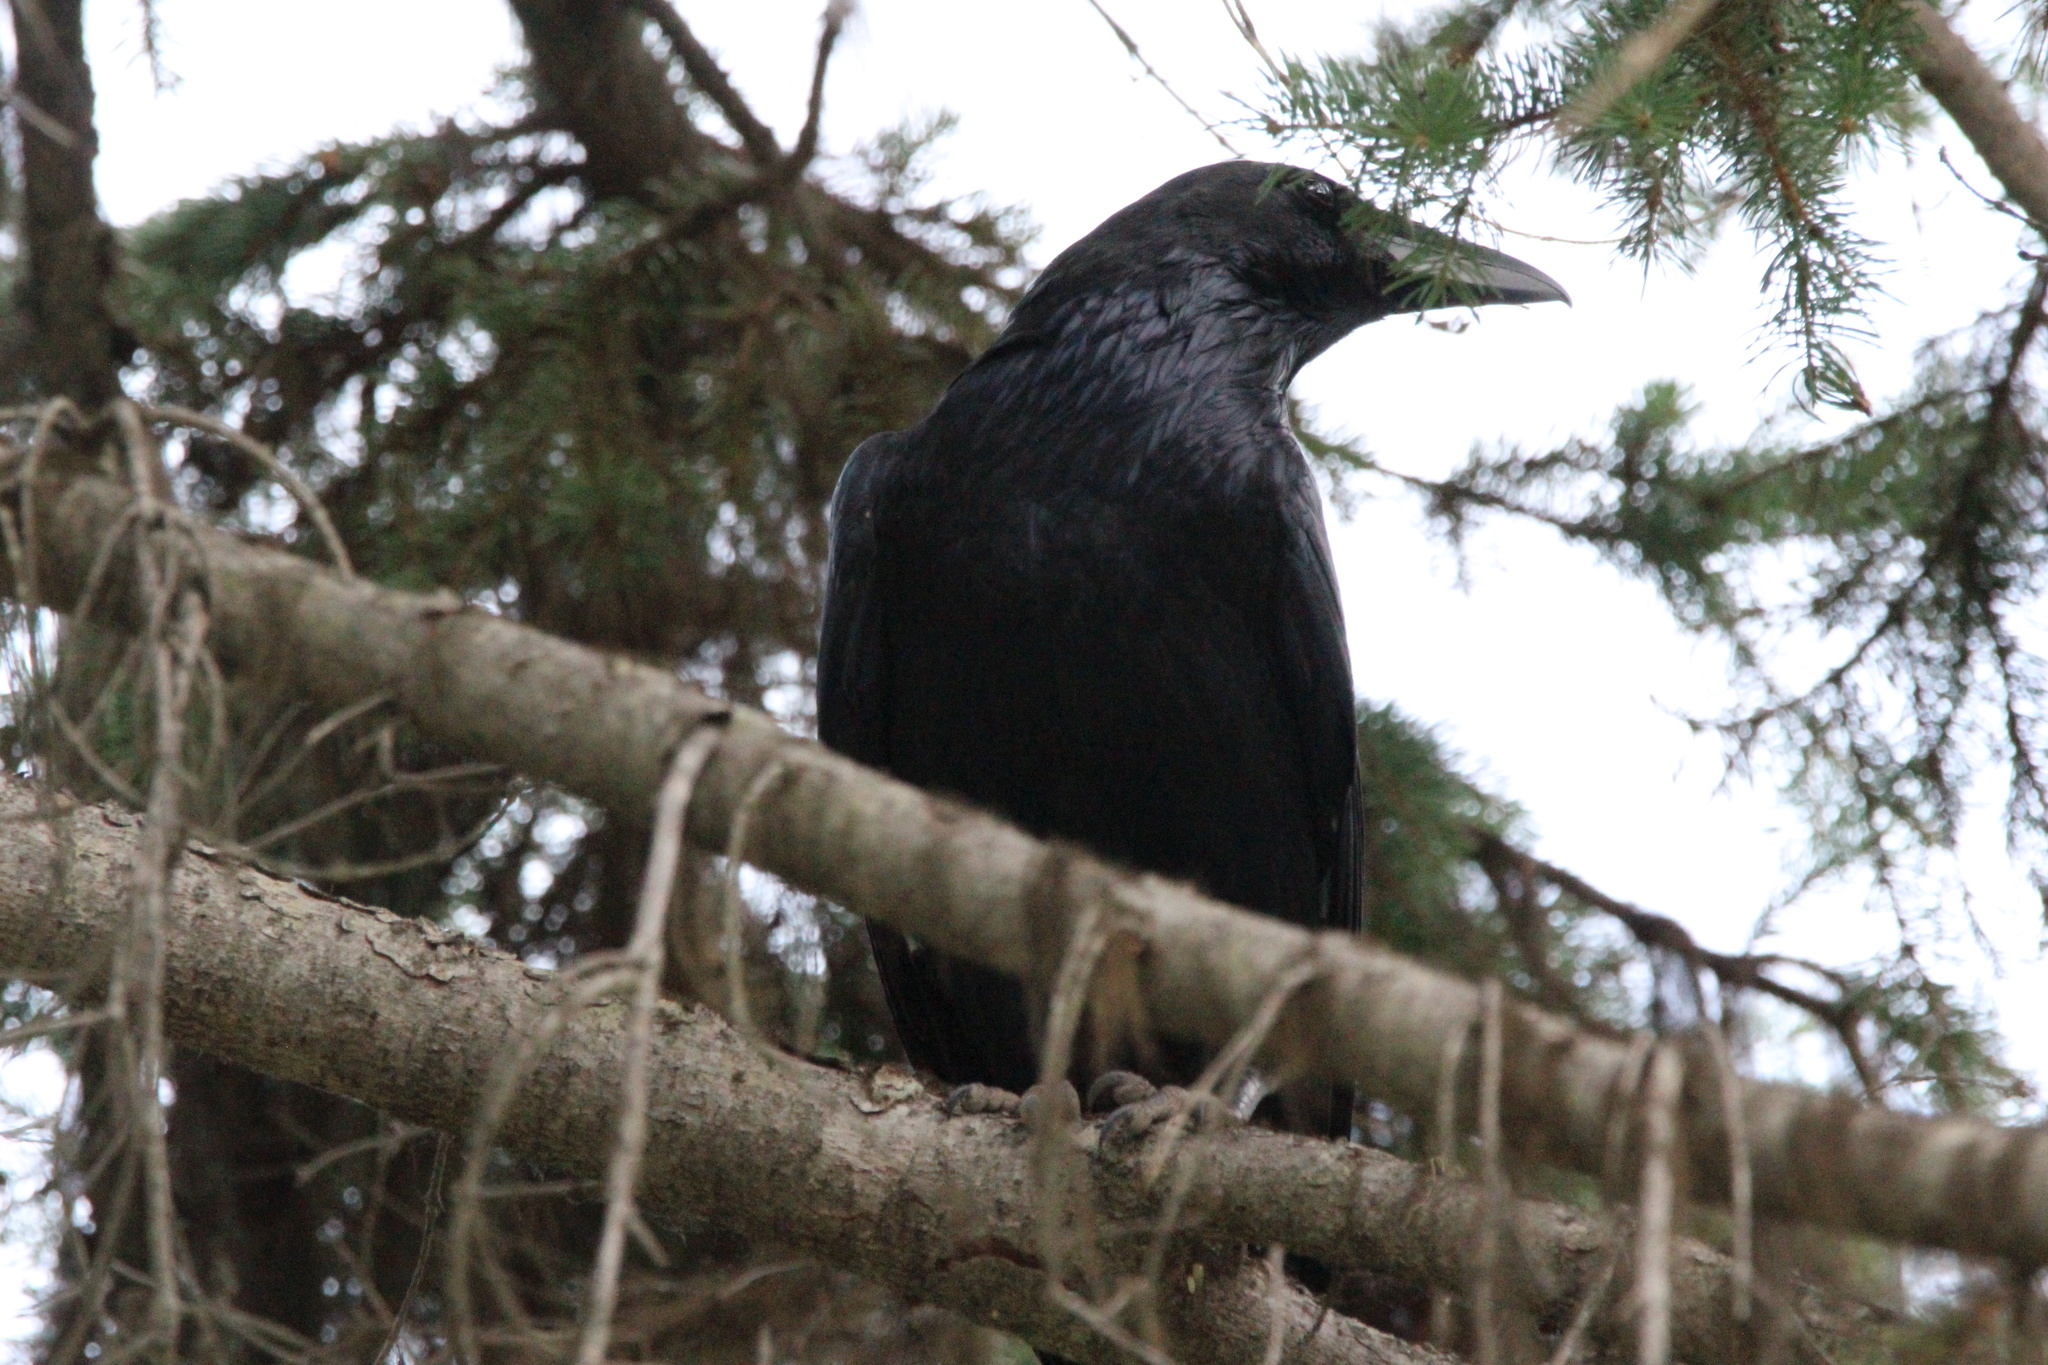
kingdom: Animalia
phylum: Chordata
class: Aves
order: Passeriformes
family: Corvidae
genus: Corvus
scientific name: Corvus corax
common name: Common raven
